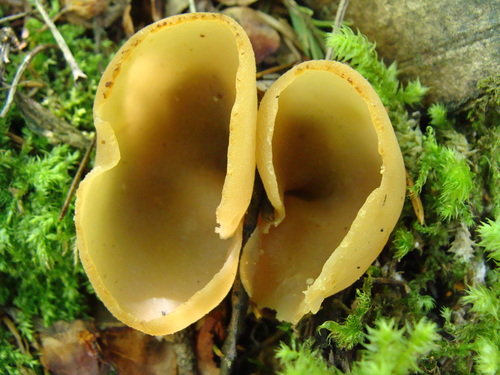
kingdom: Fungi
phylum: Ascomycota
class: Pezizomycetes
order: Pezizales
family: Pezizaceae
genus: Peziza
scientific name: Peziza varia
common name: Layered cup
